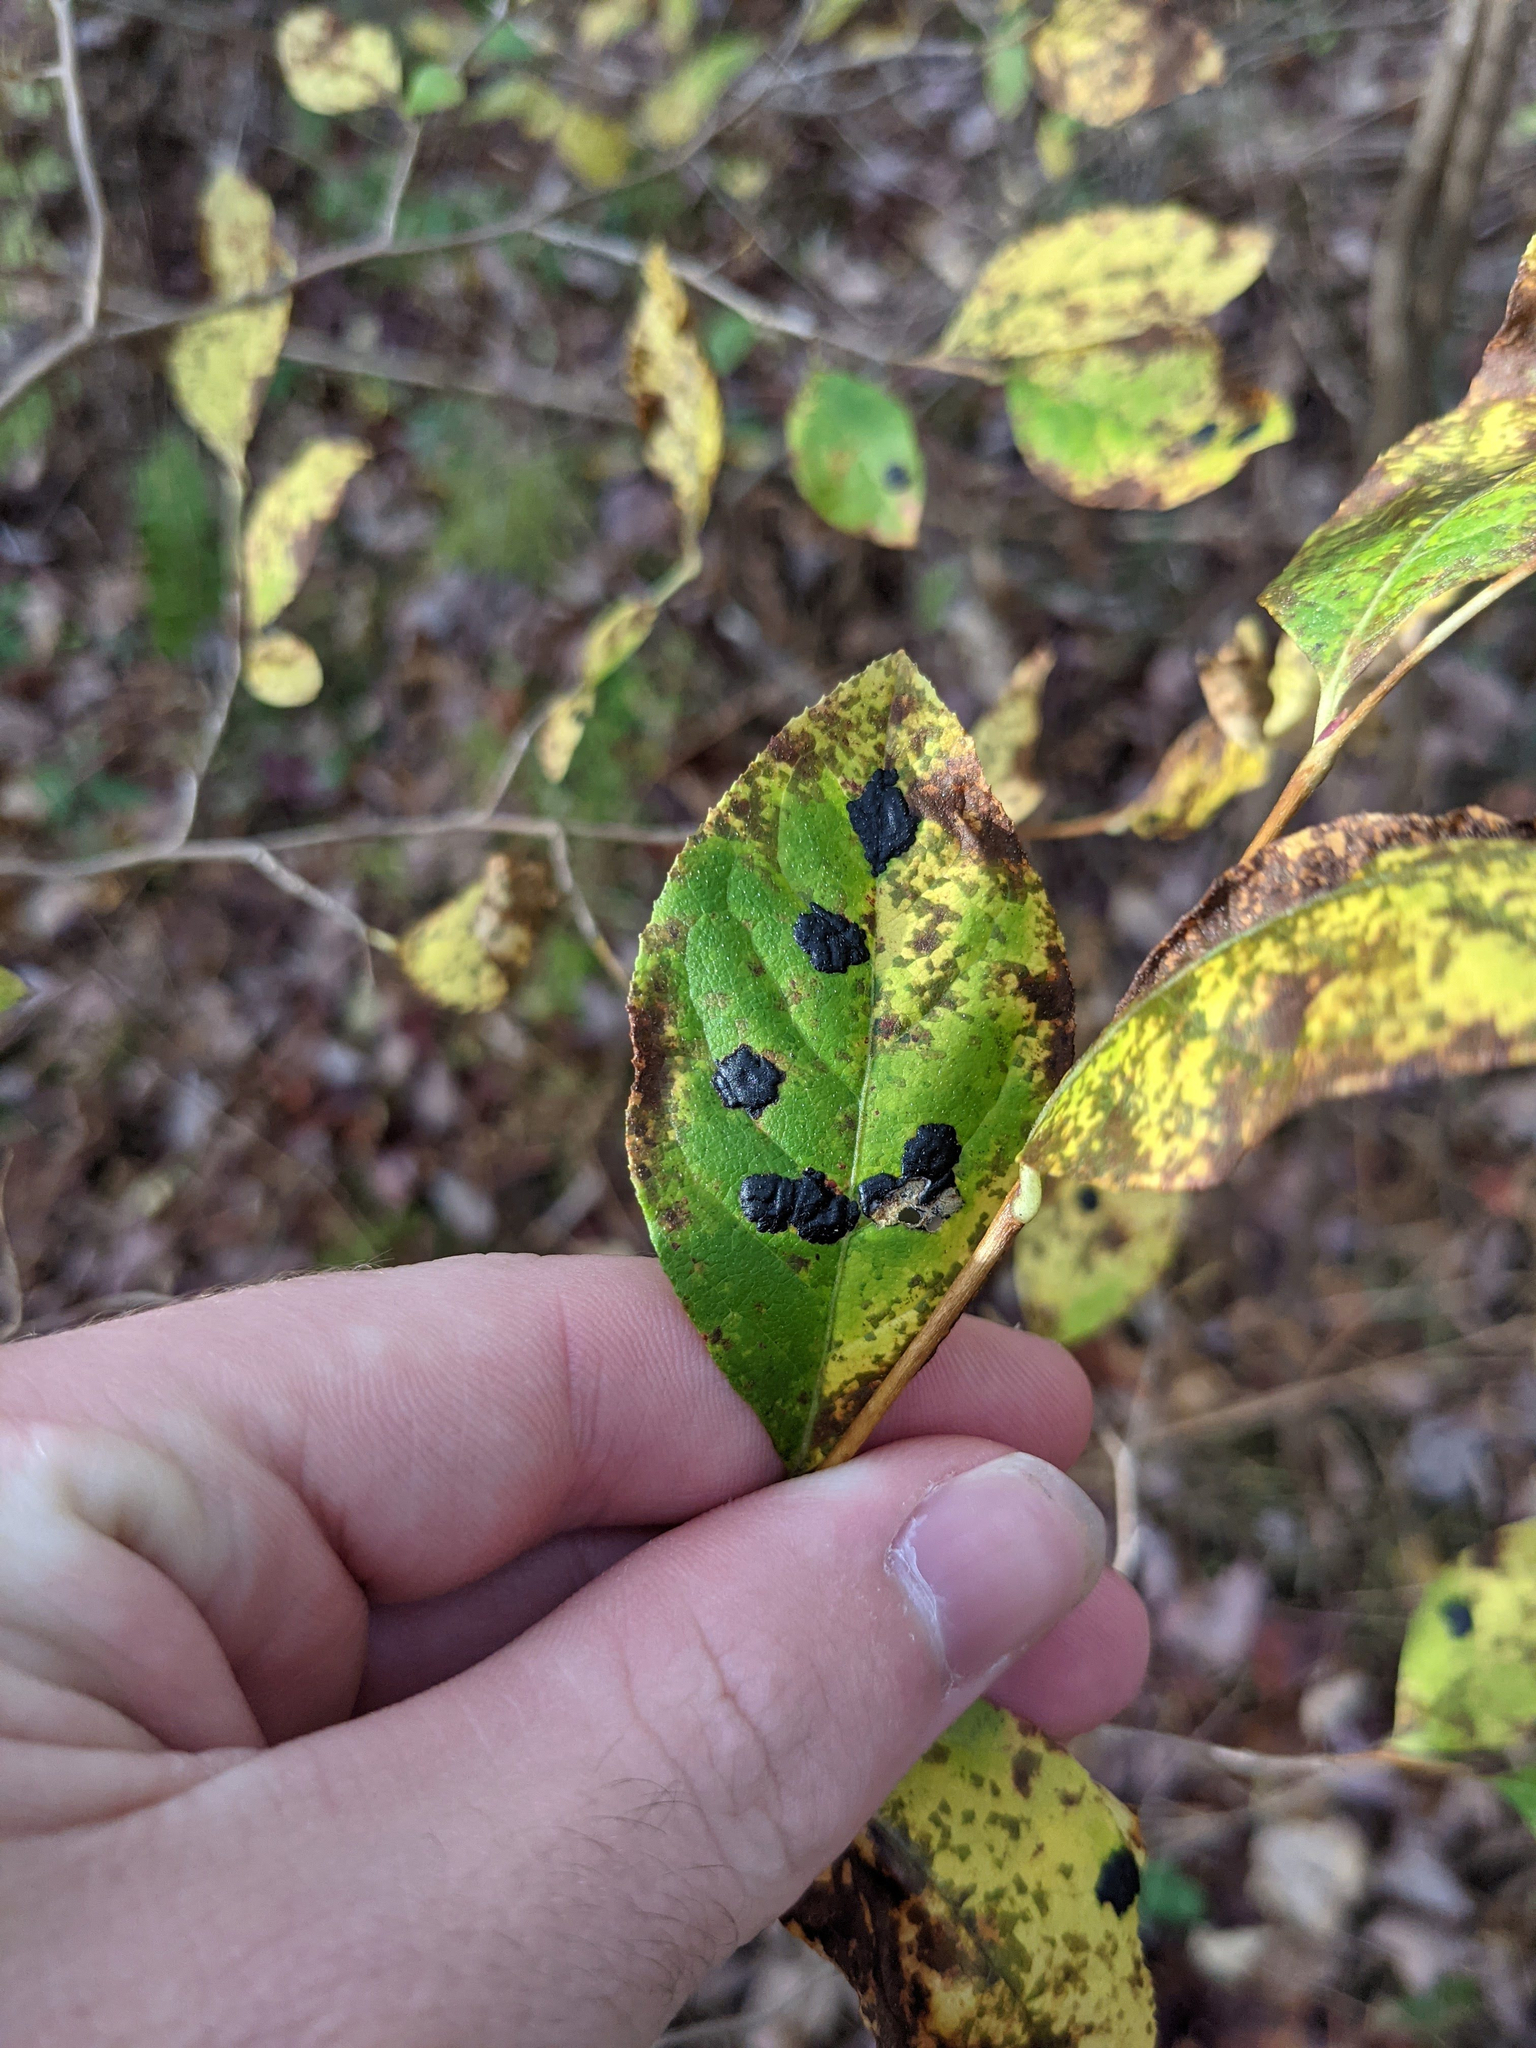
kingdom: Fungi
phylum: Ascomycota
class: Leotiomycetes
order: Rhytismatales
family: Rhytismataceae
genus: Rhytisma
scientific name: Rhytisma salicinum
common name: Willow tarspot
